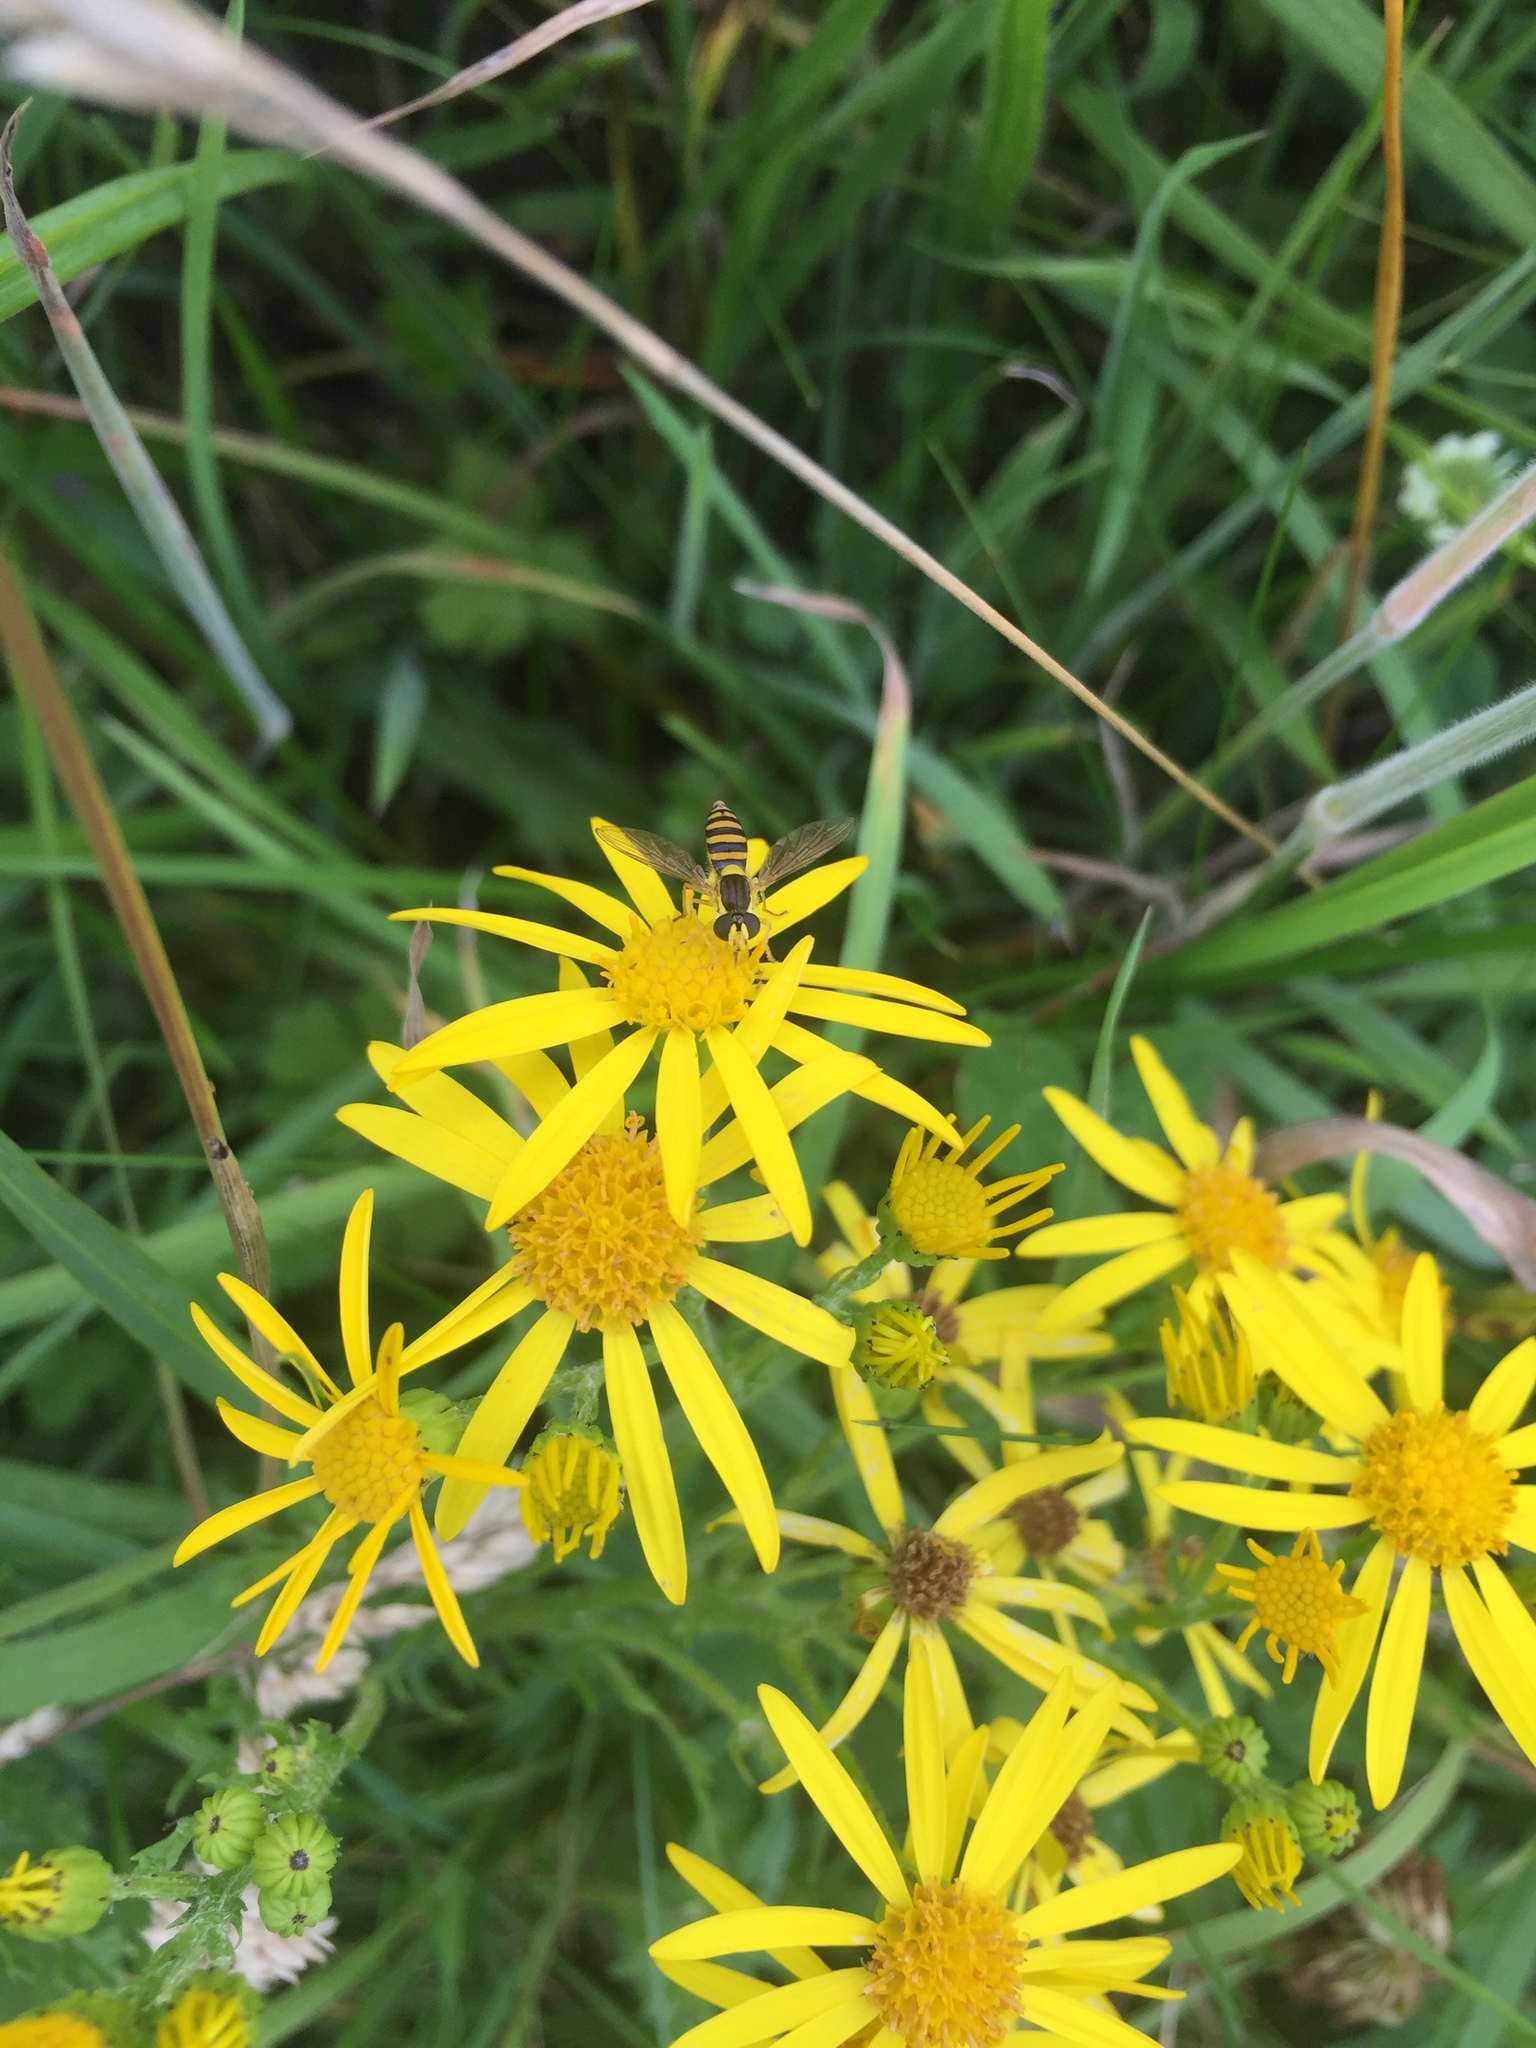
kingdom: Animalia
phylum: Arthropoda
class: Insecta
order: Diptera
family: Syrphidae
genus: Sphaerophoria
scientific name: Sphaerophoria
